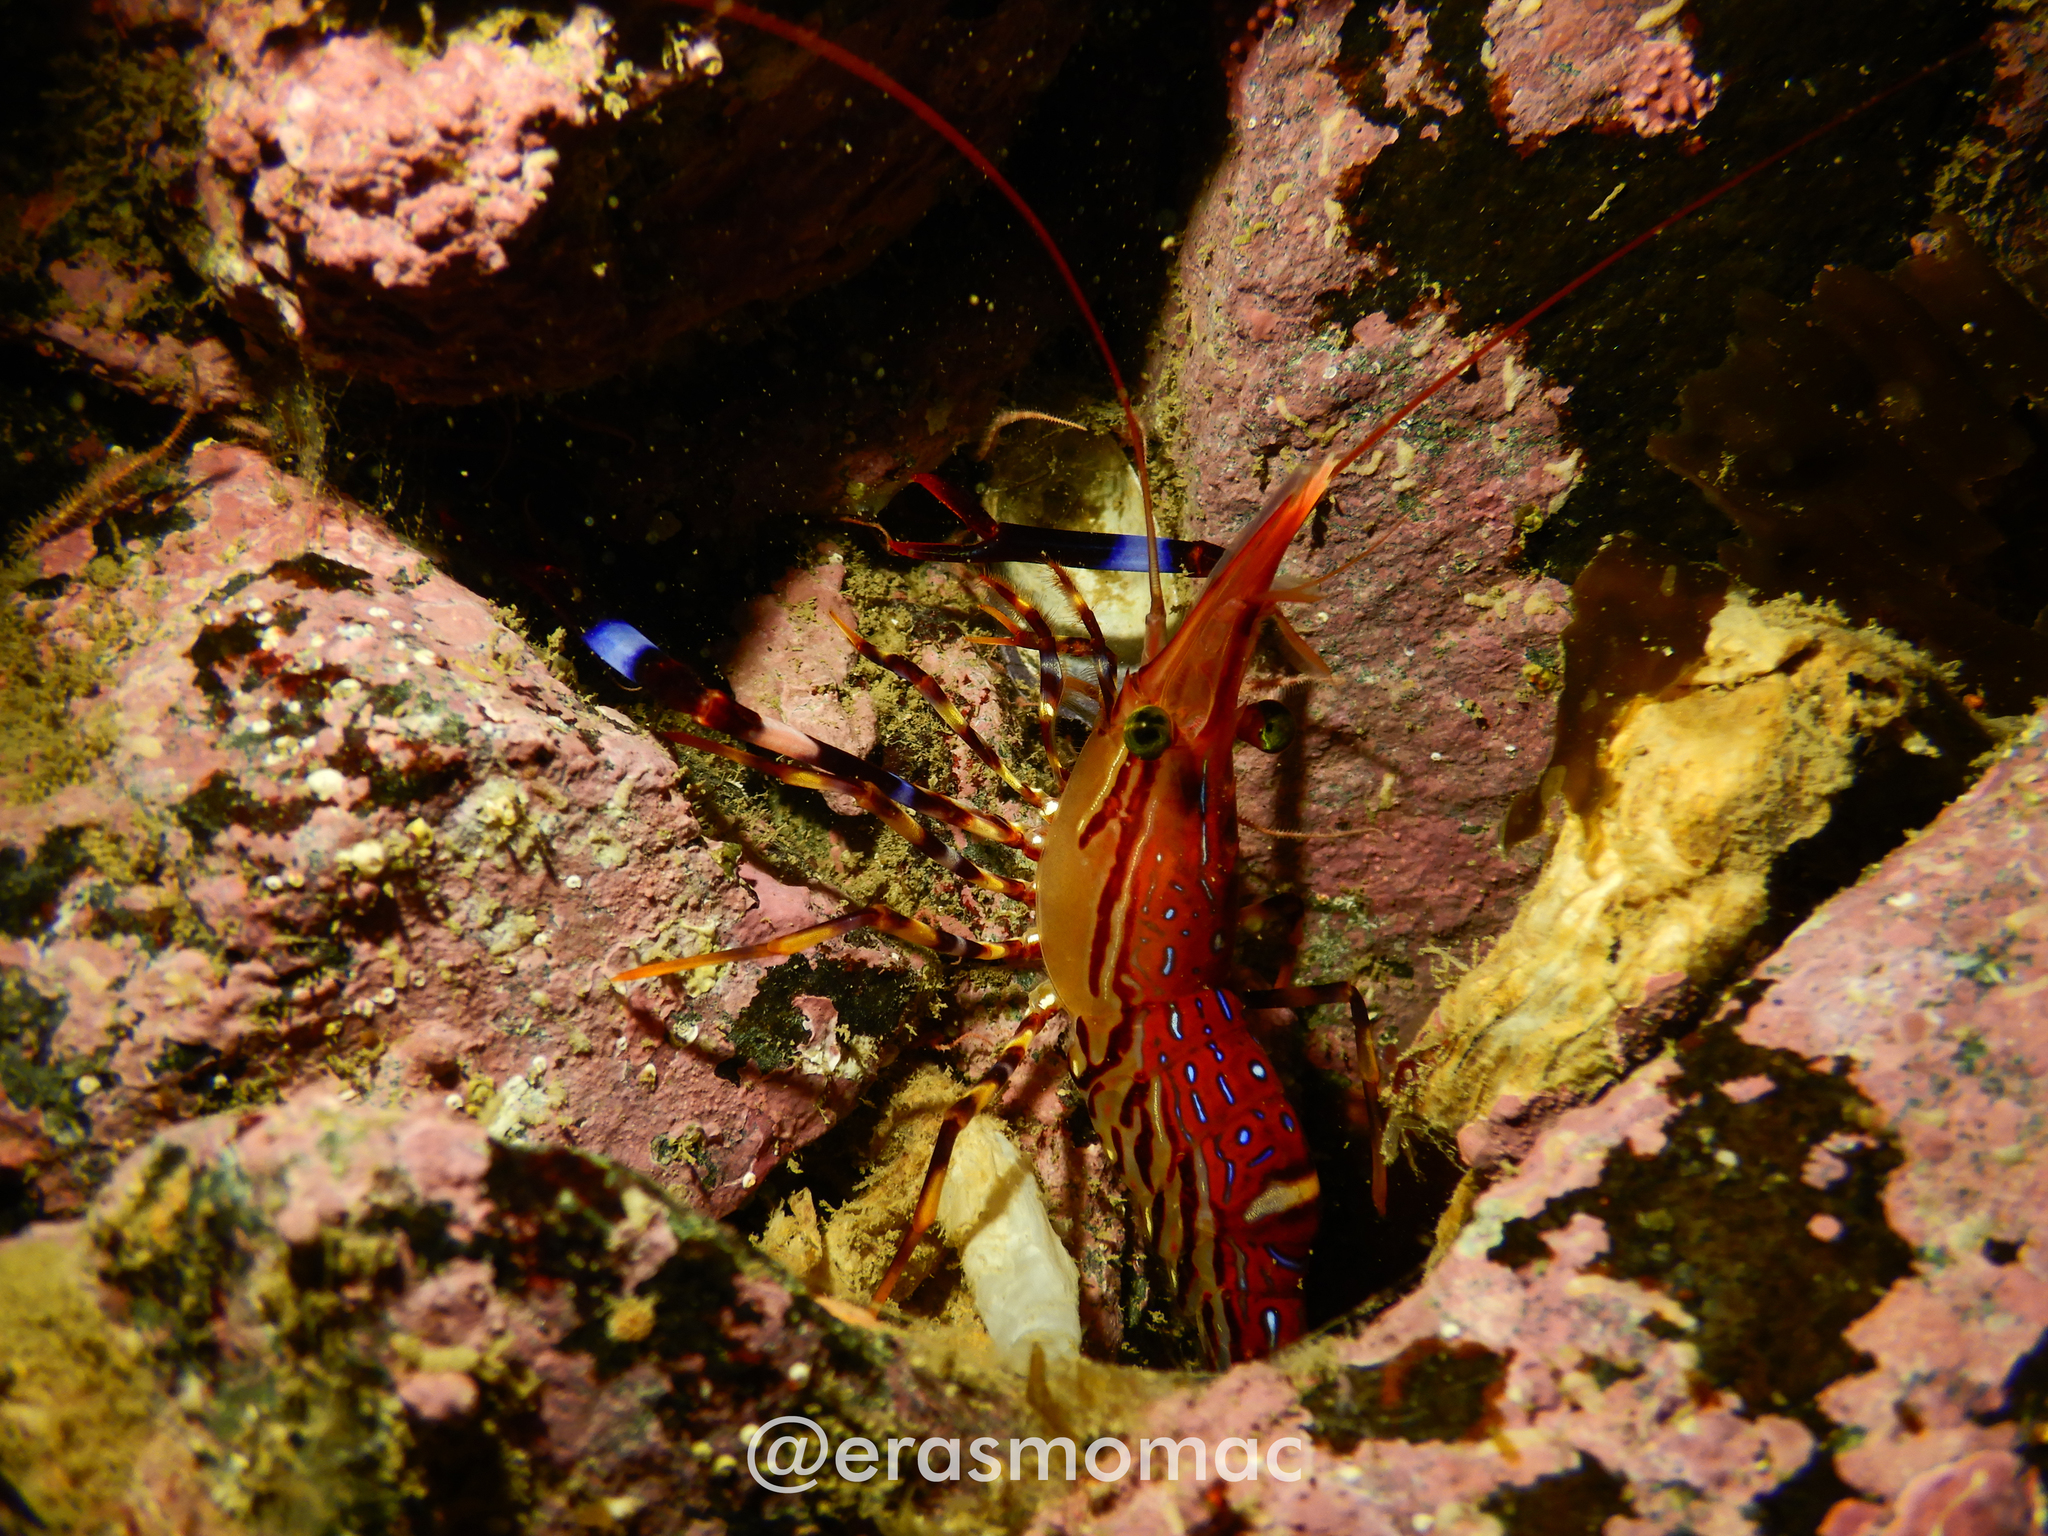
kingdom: Animalia
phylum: Arthropoda
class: Malacostraca
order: Decapoda
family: Campylonotidae
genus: Campylonotus
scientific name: Campylonotus vagans
